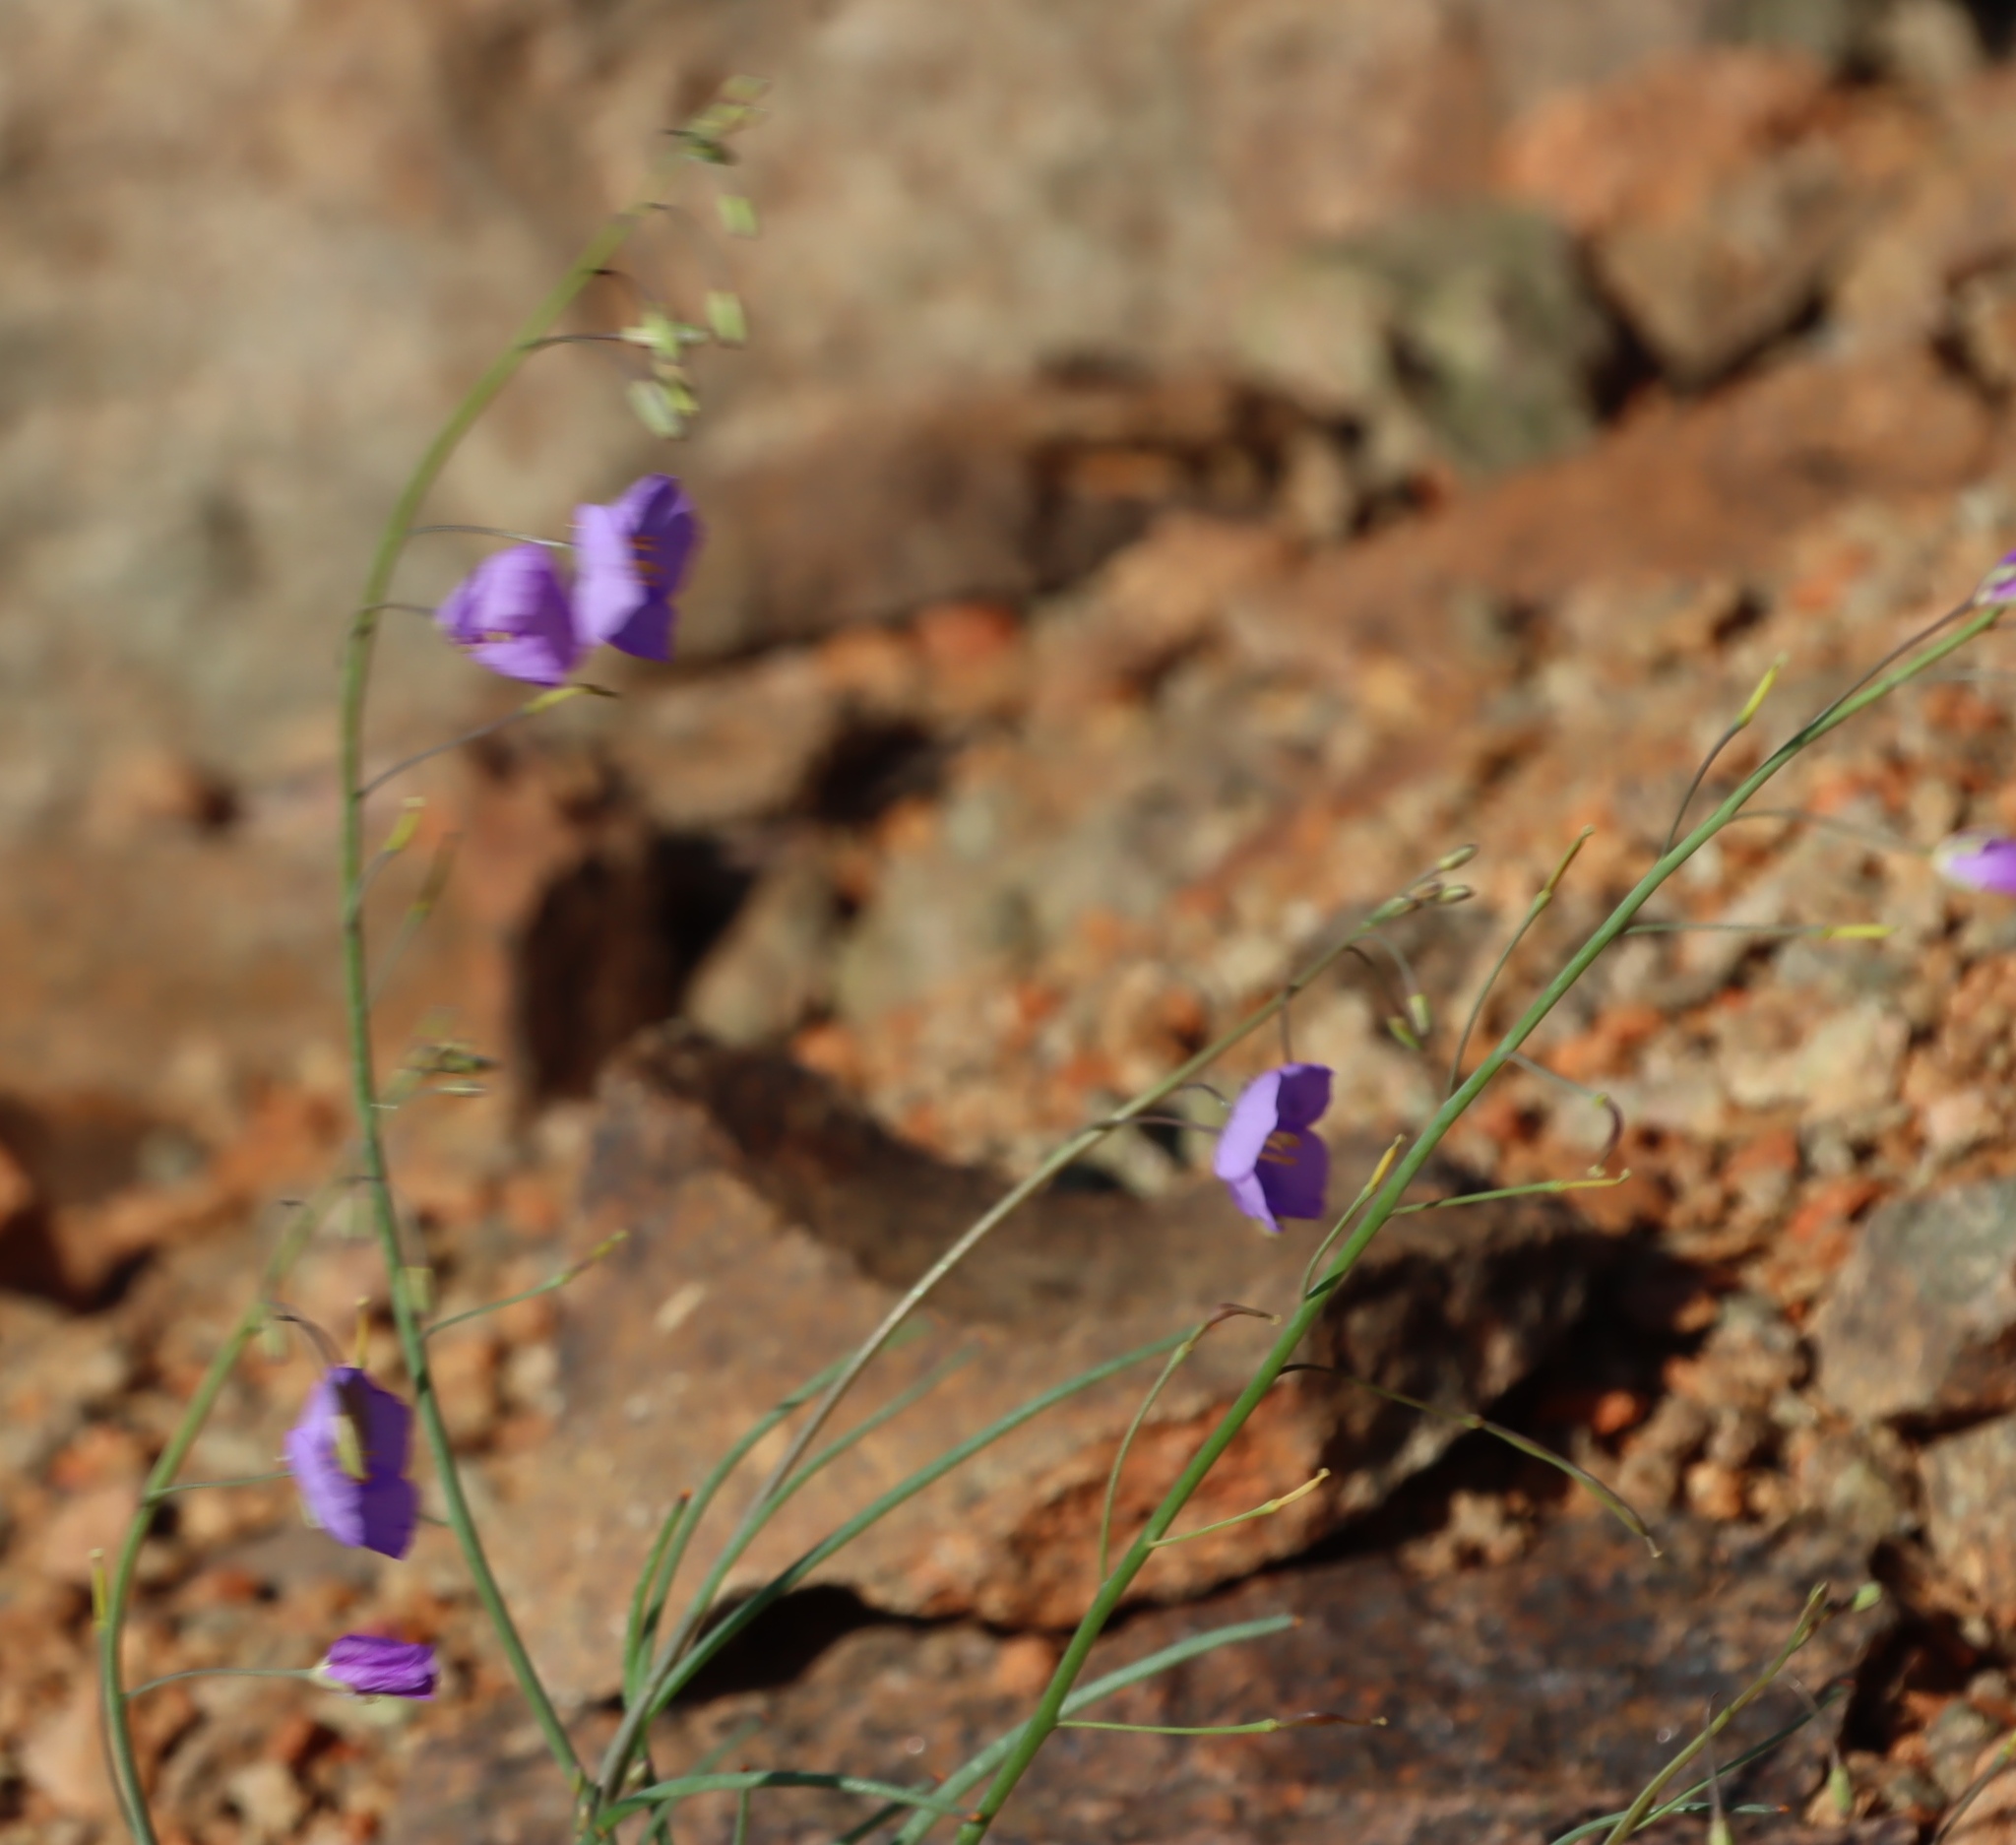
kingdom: Plantae
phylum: Tracheophyta
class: Magnoliopsida
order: Brassicales
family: Brassicaceae
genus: Heliophila
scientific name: Heliophila trifurca
